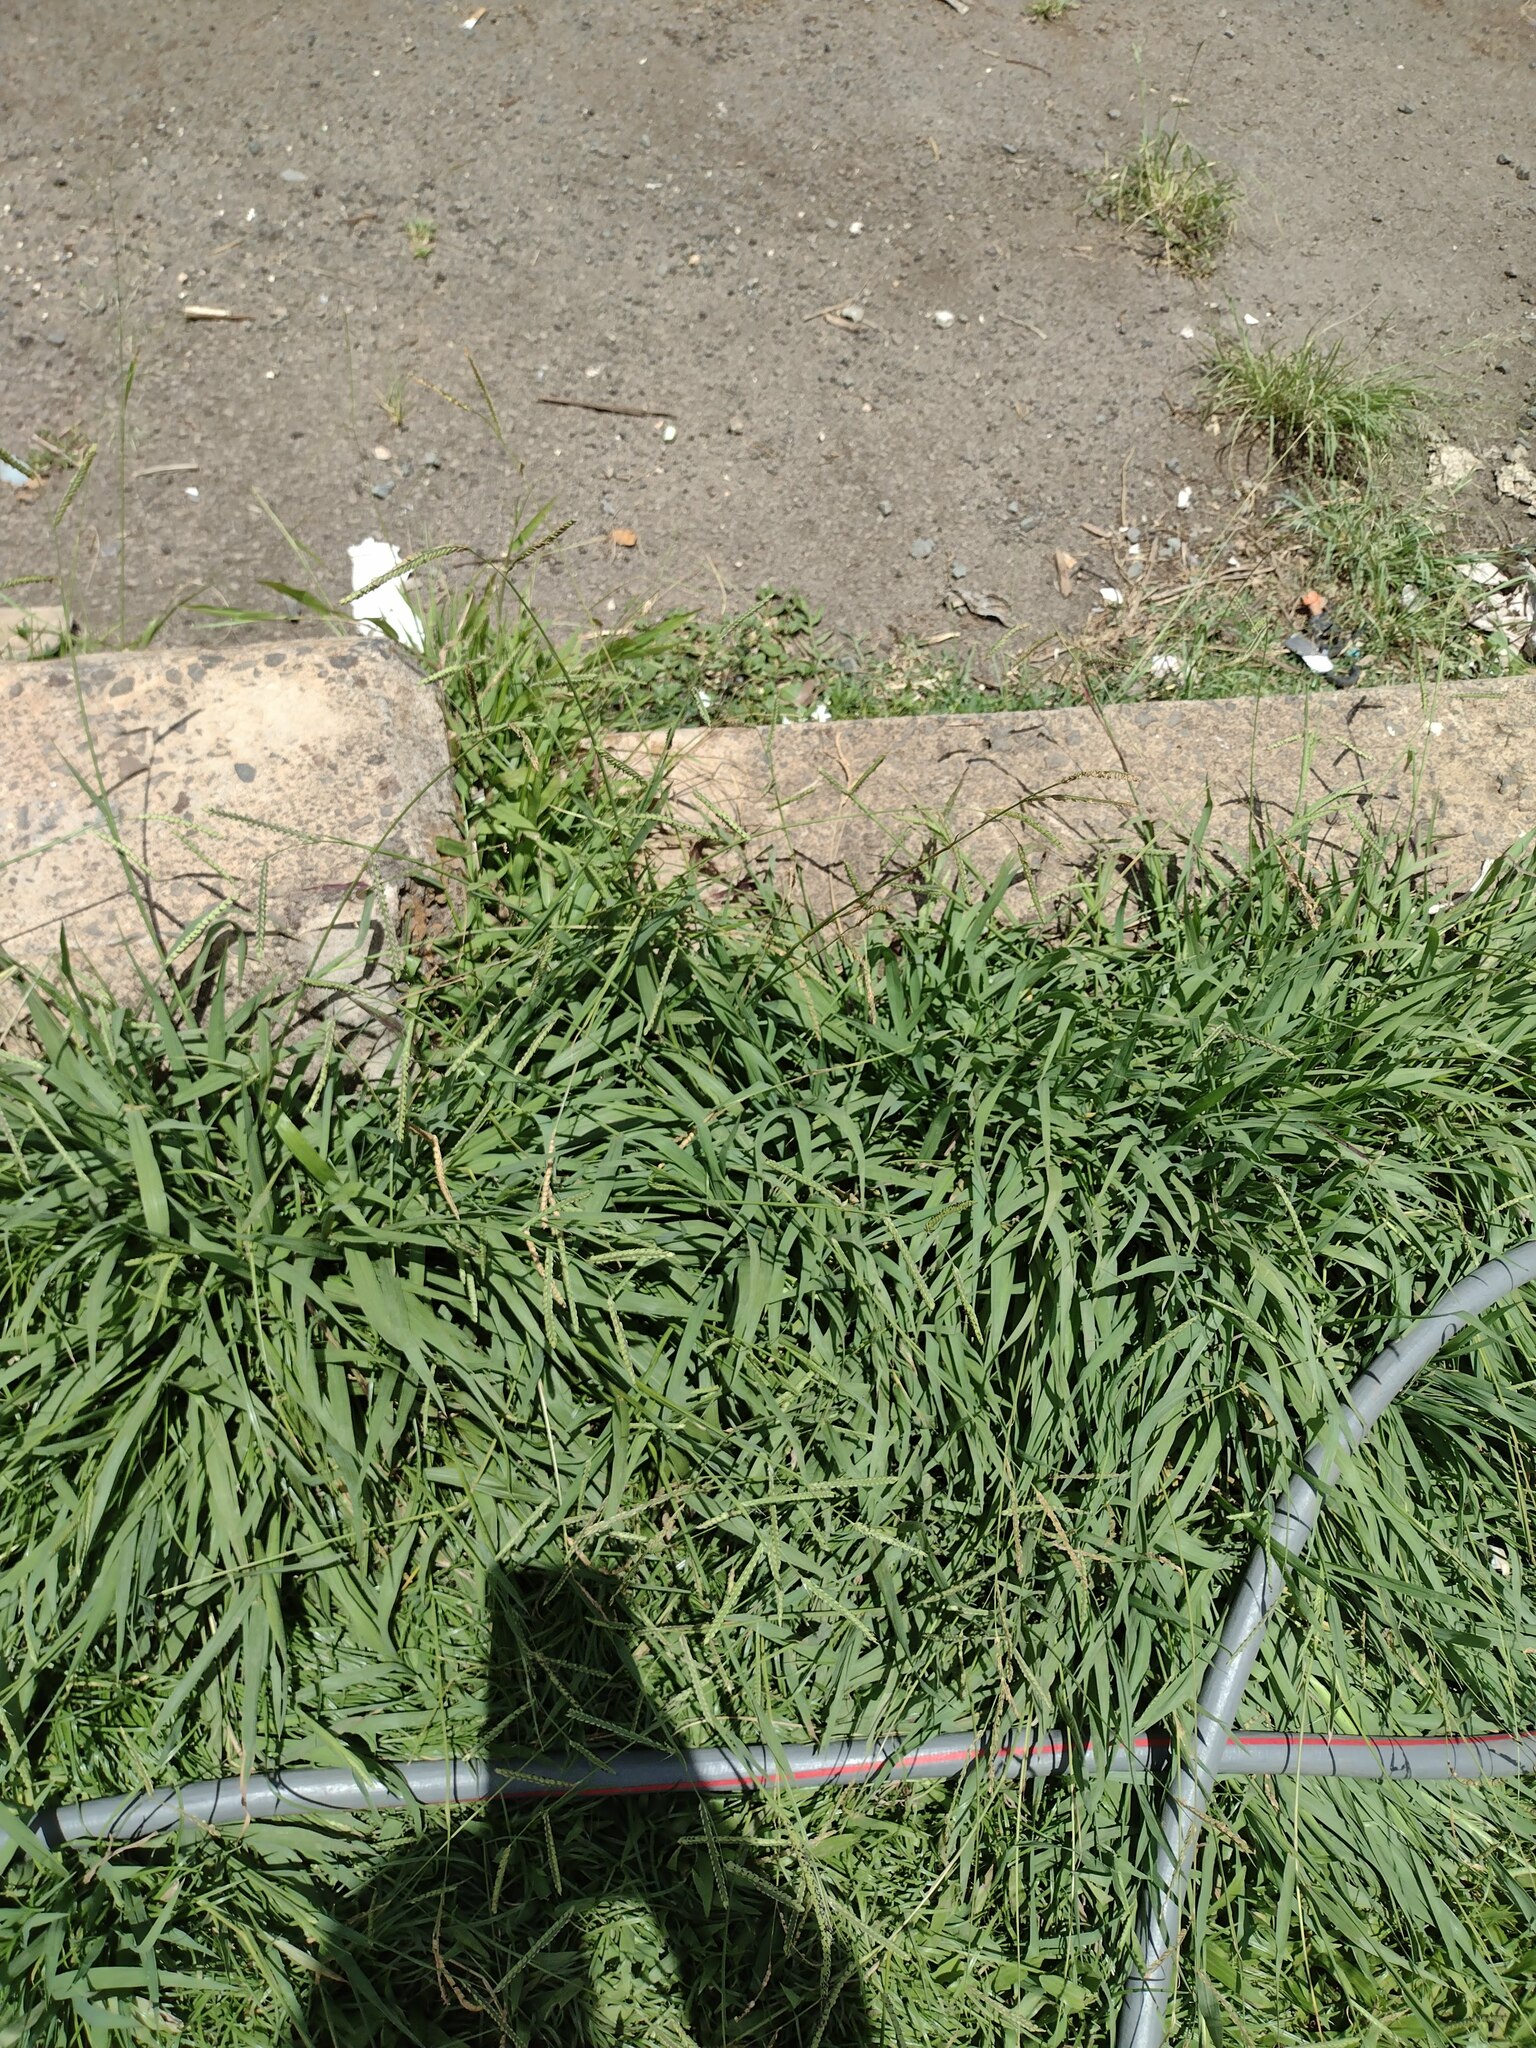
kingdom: Plantae
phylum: Tracheophyta
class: Liliopsida
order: Poales
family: Poaceae
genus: Paspalum
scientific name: Paspalum dilatatum
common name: Dallisgrass
